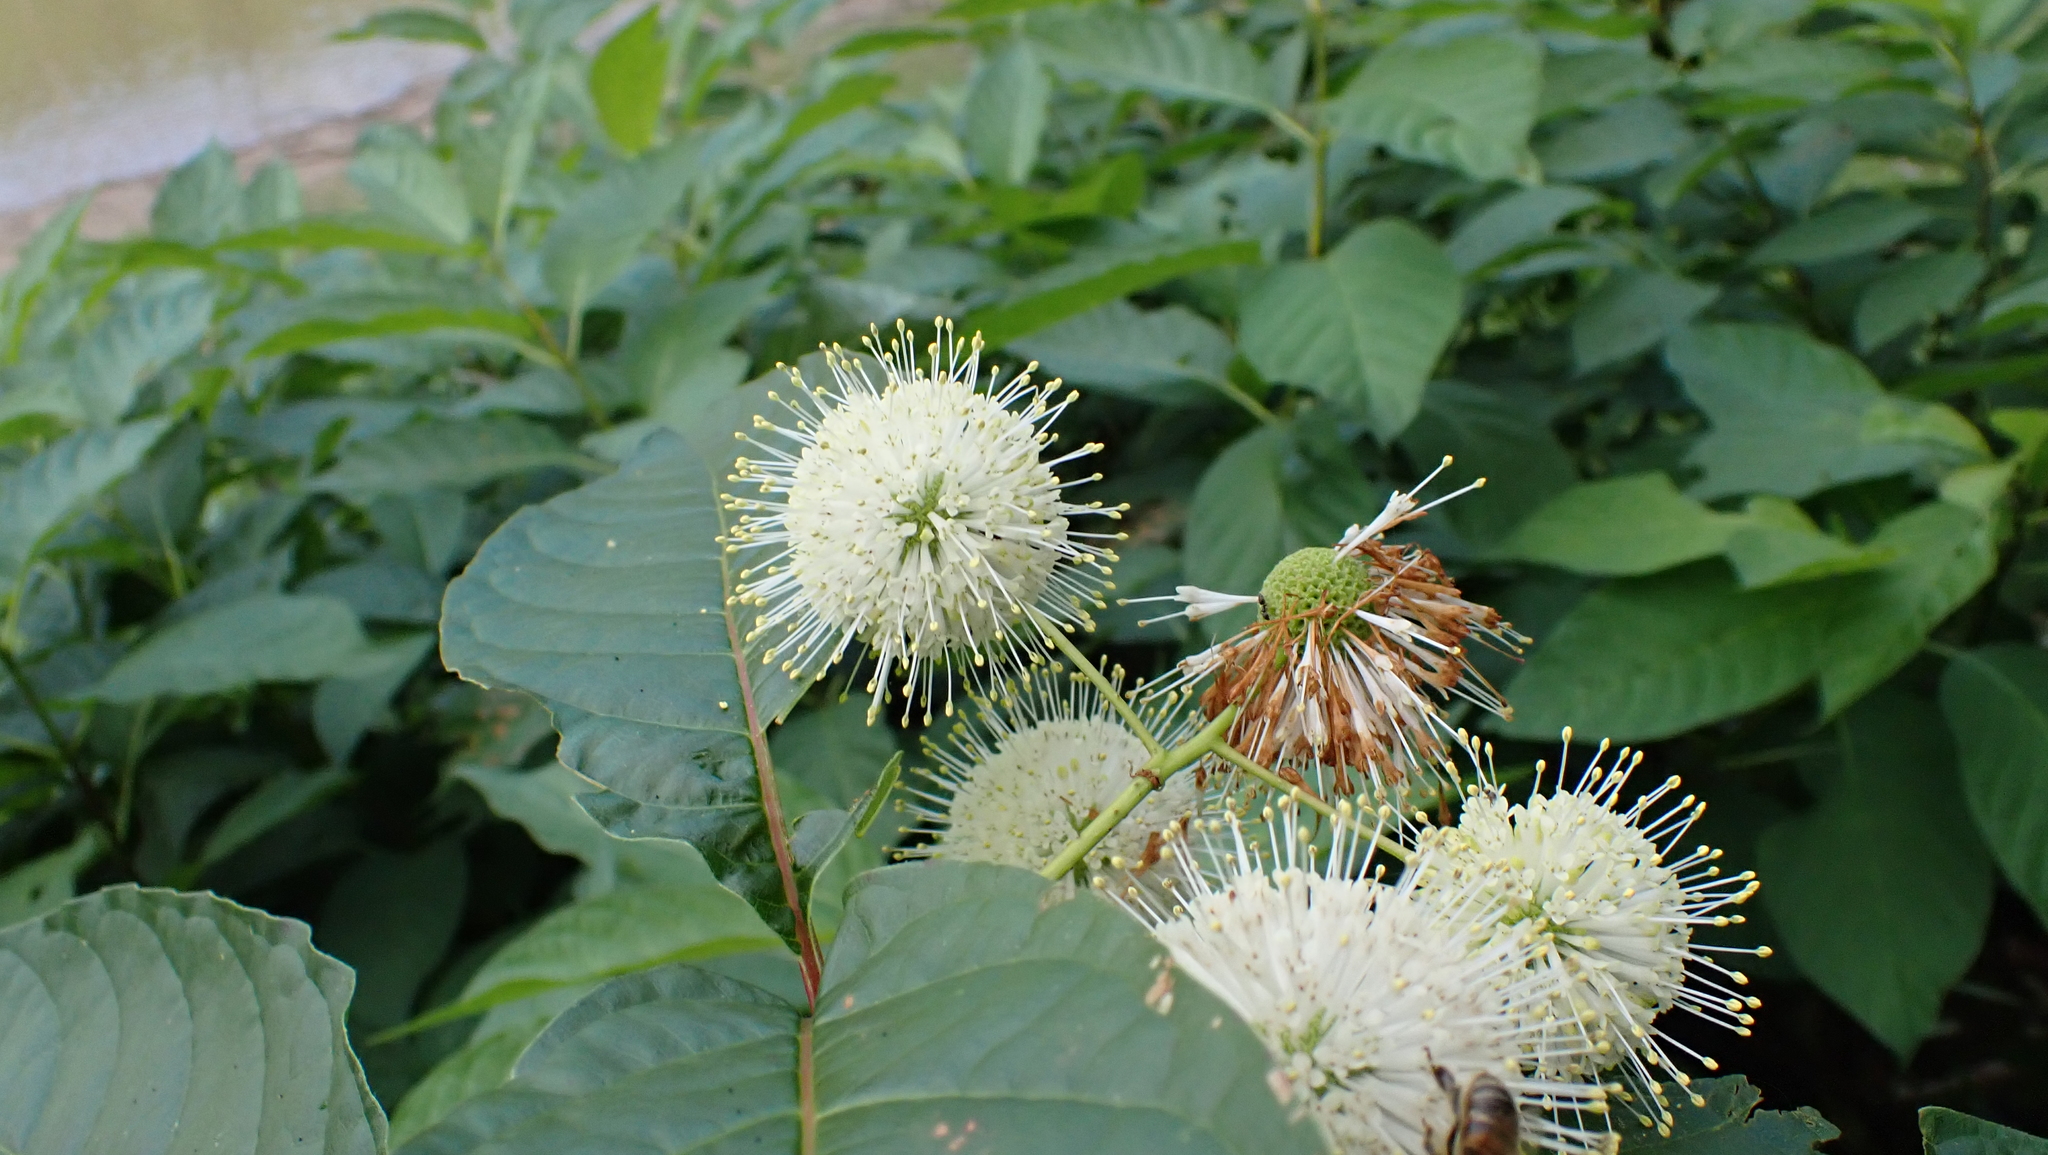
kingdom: Plantae
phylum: Tracheophyta
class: Magnoliopsida
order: Gentianales
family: Rubiaceae
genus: Cephalanthus
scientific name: Cephalanthus occidentalis
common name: Button-willow
